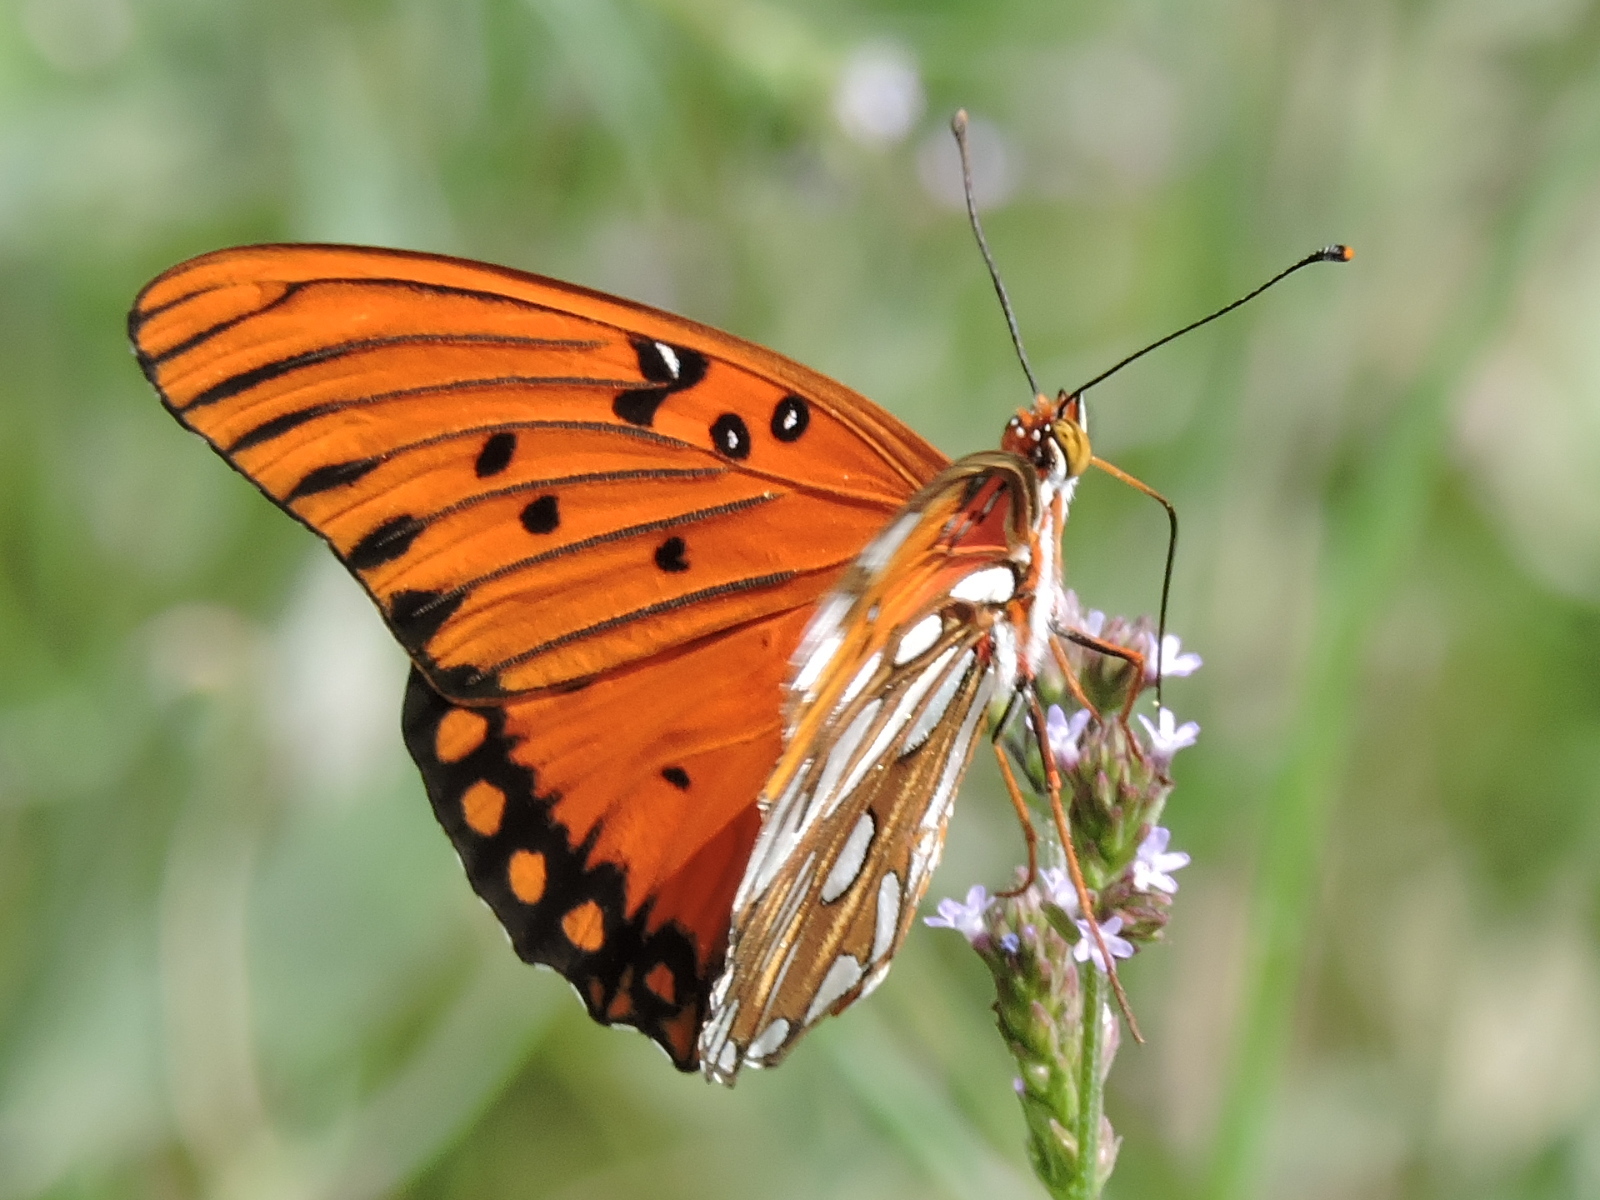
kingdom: Animalia
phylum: Arthropoda
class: Insecta
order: Lepidoptera
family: Nymphalidae
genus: Dione
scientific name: Dione vanillae
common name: Gulf fritillary
